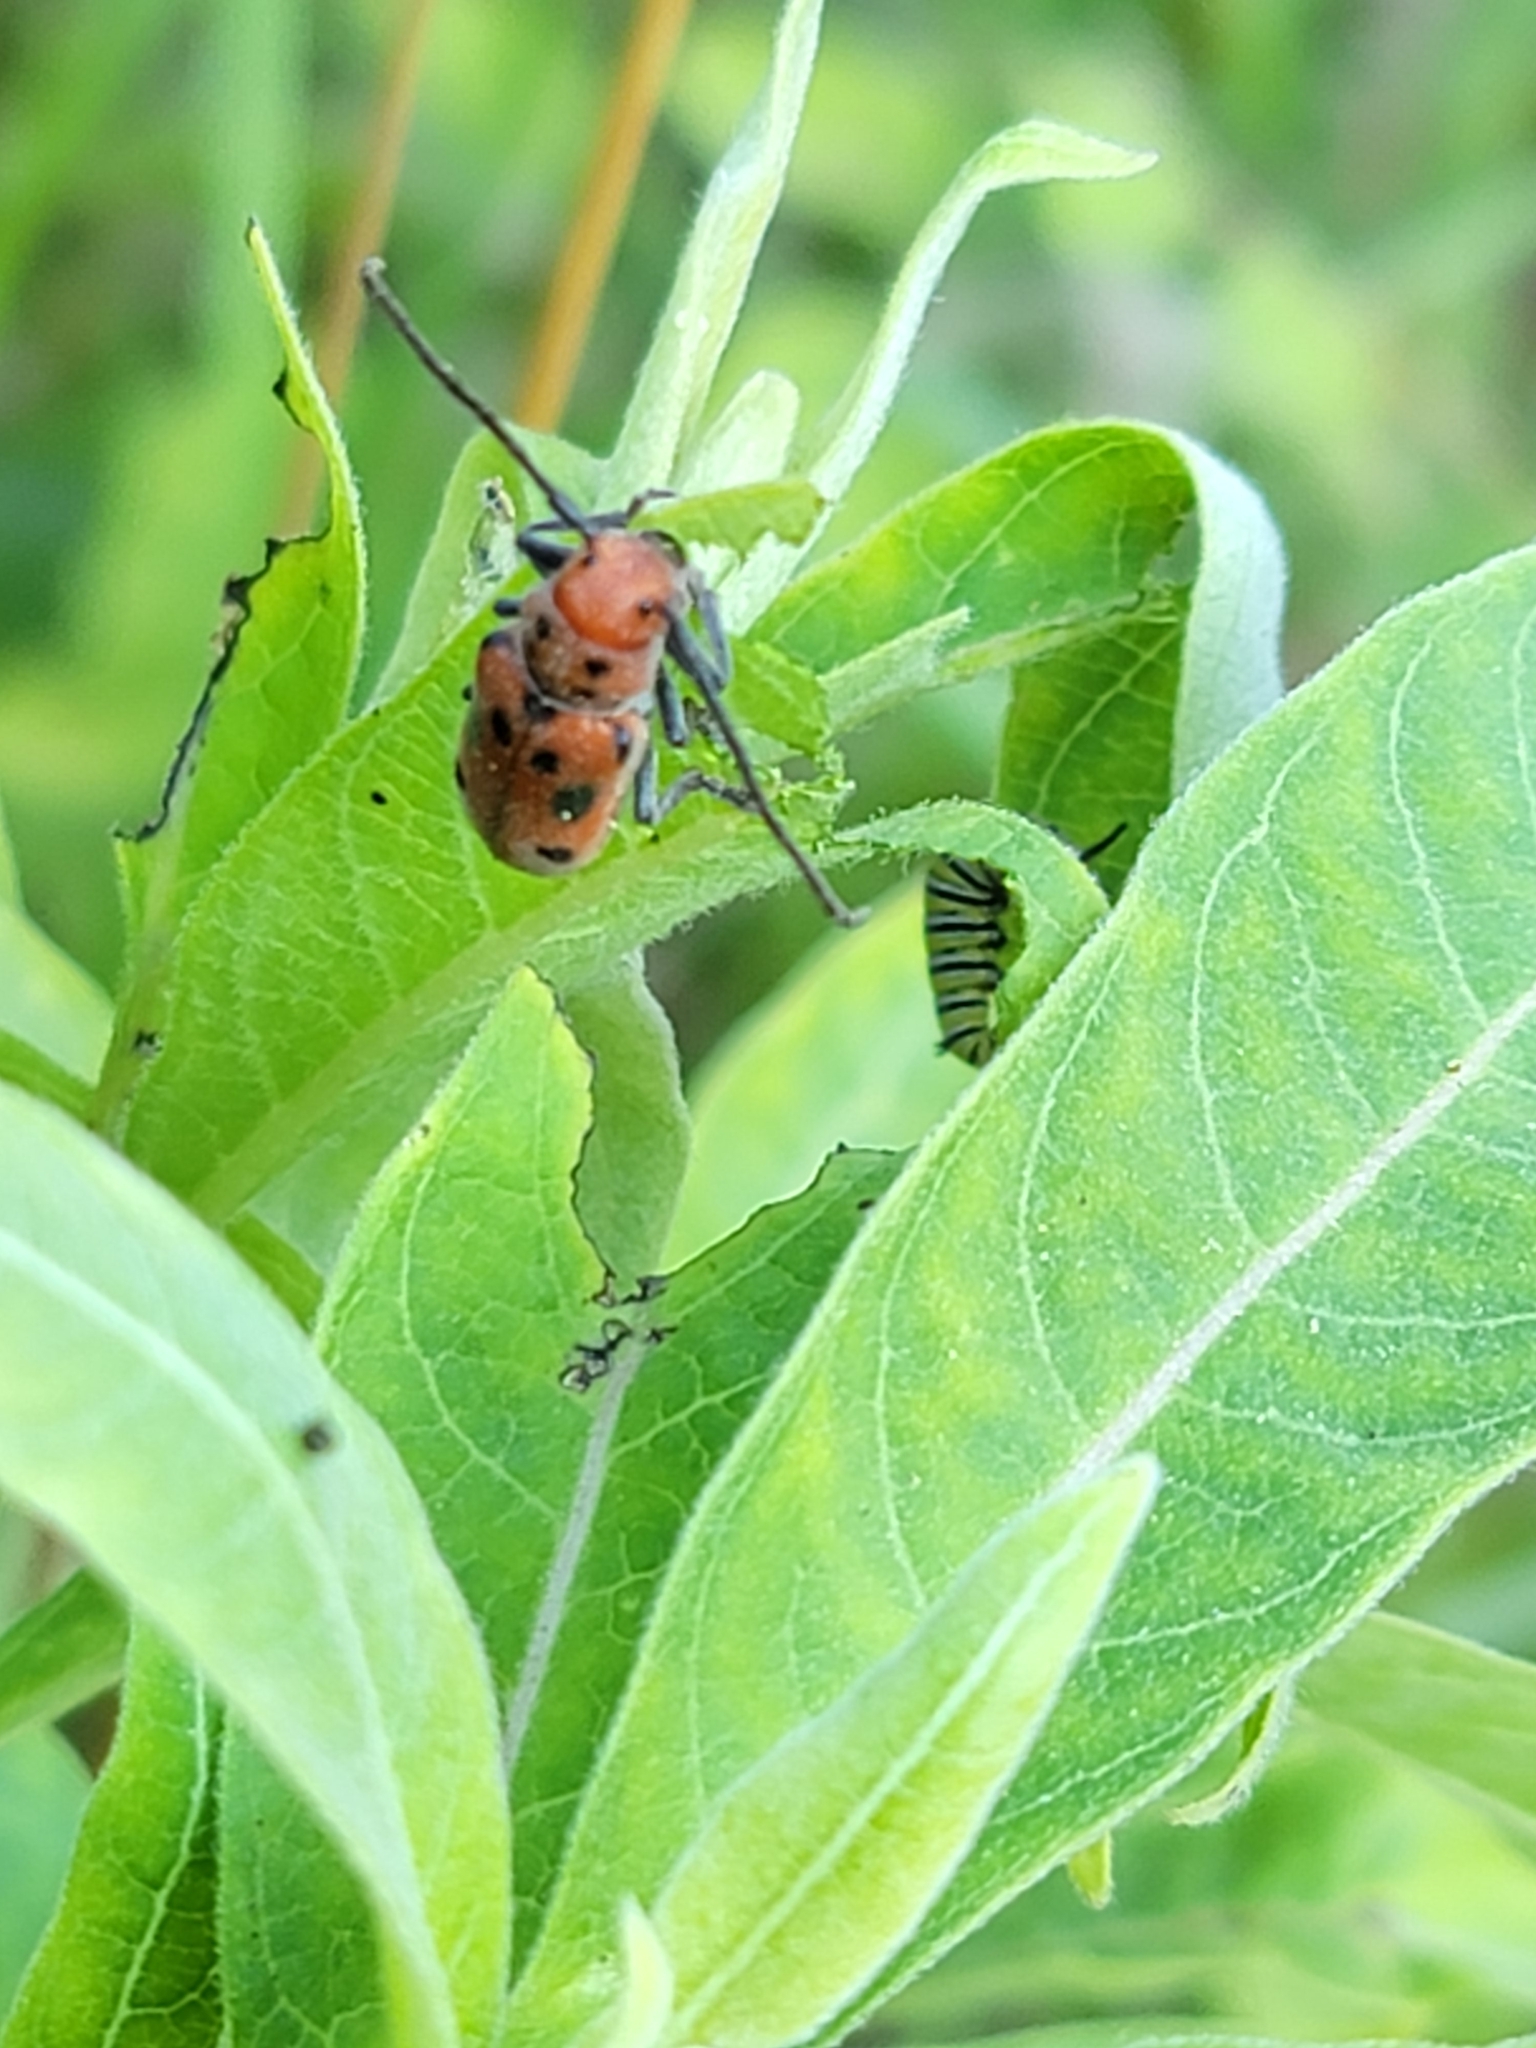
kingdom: Animalia
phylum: Arthropoda
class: Insecta
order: Coleoptera
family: Cerambycidae
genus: Tetraopes
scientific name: Tetraopes tetrophthalmus
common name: Red milkweed beetle
